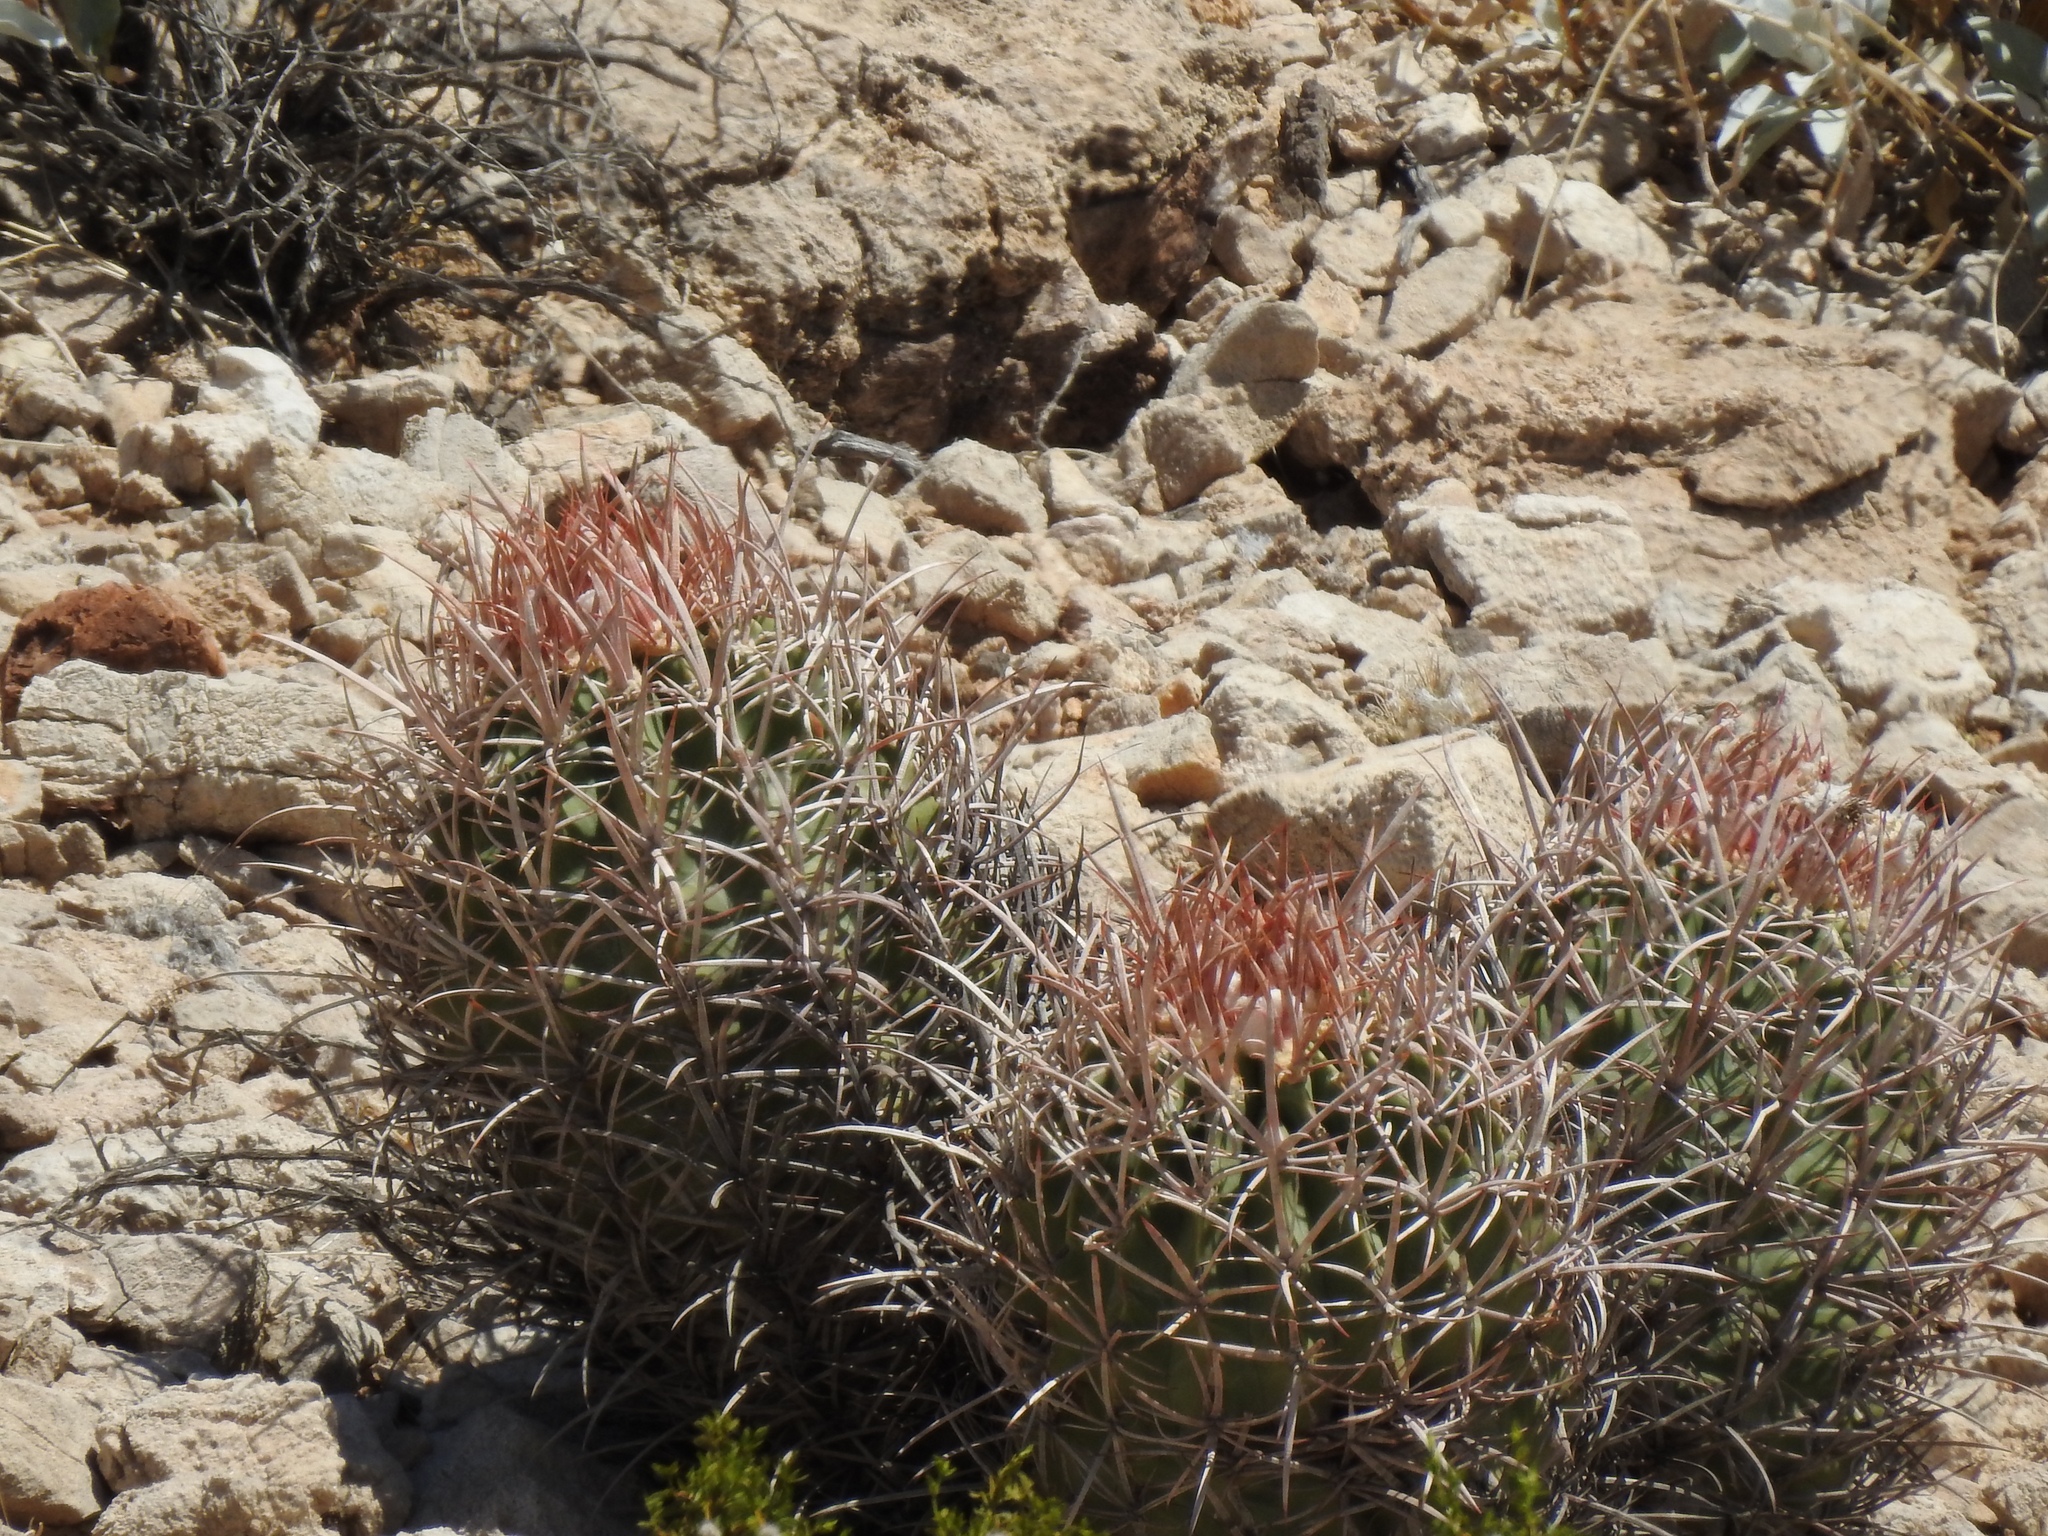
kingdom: Plantae
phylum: Tracheophyta
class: Magnoliopsida
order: Caryophyllales
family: Cactaceae
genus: Echinocactus
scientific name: Echinocactus polycephalus
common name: Cottontop cactus
